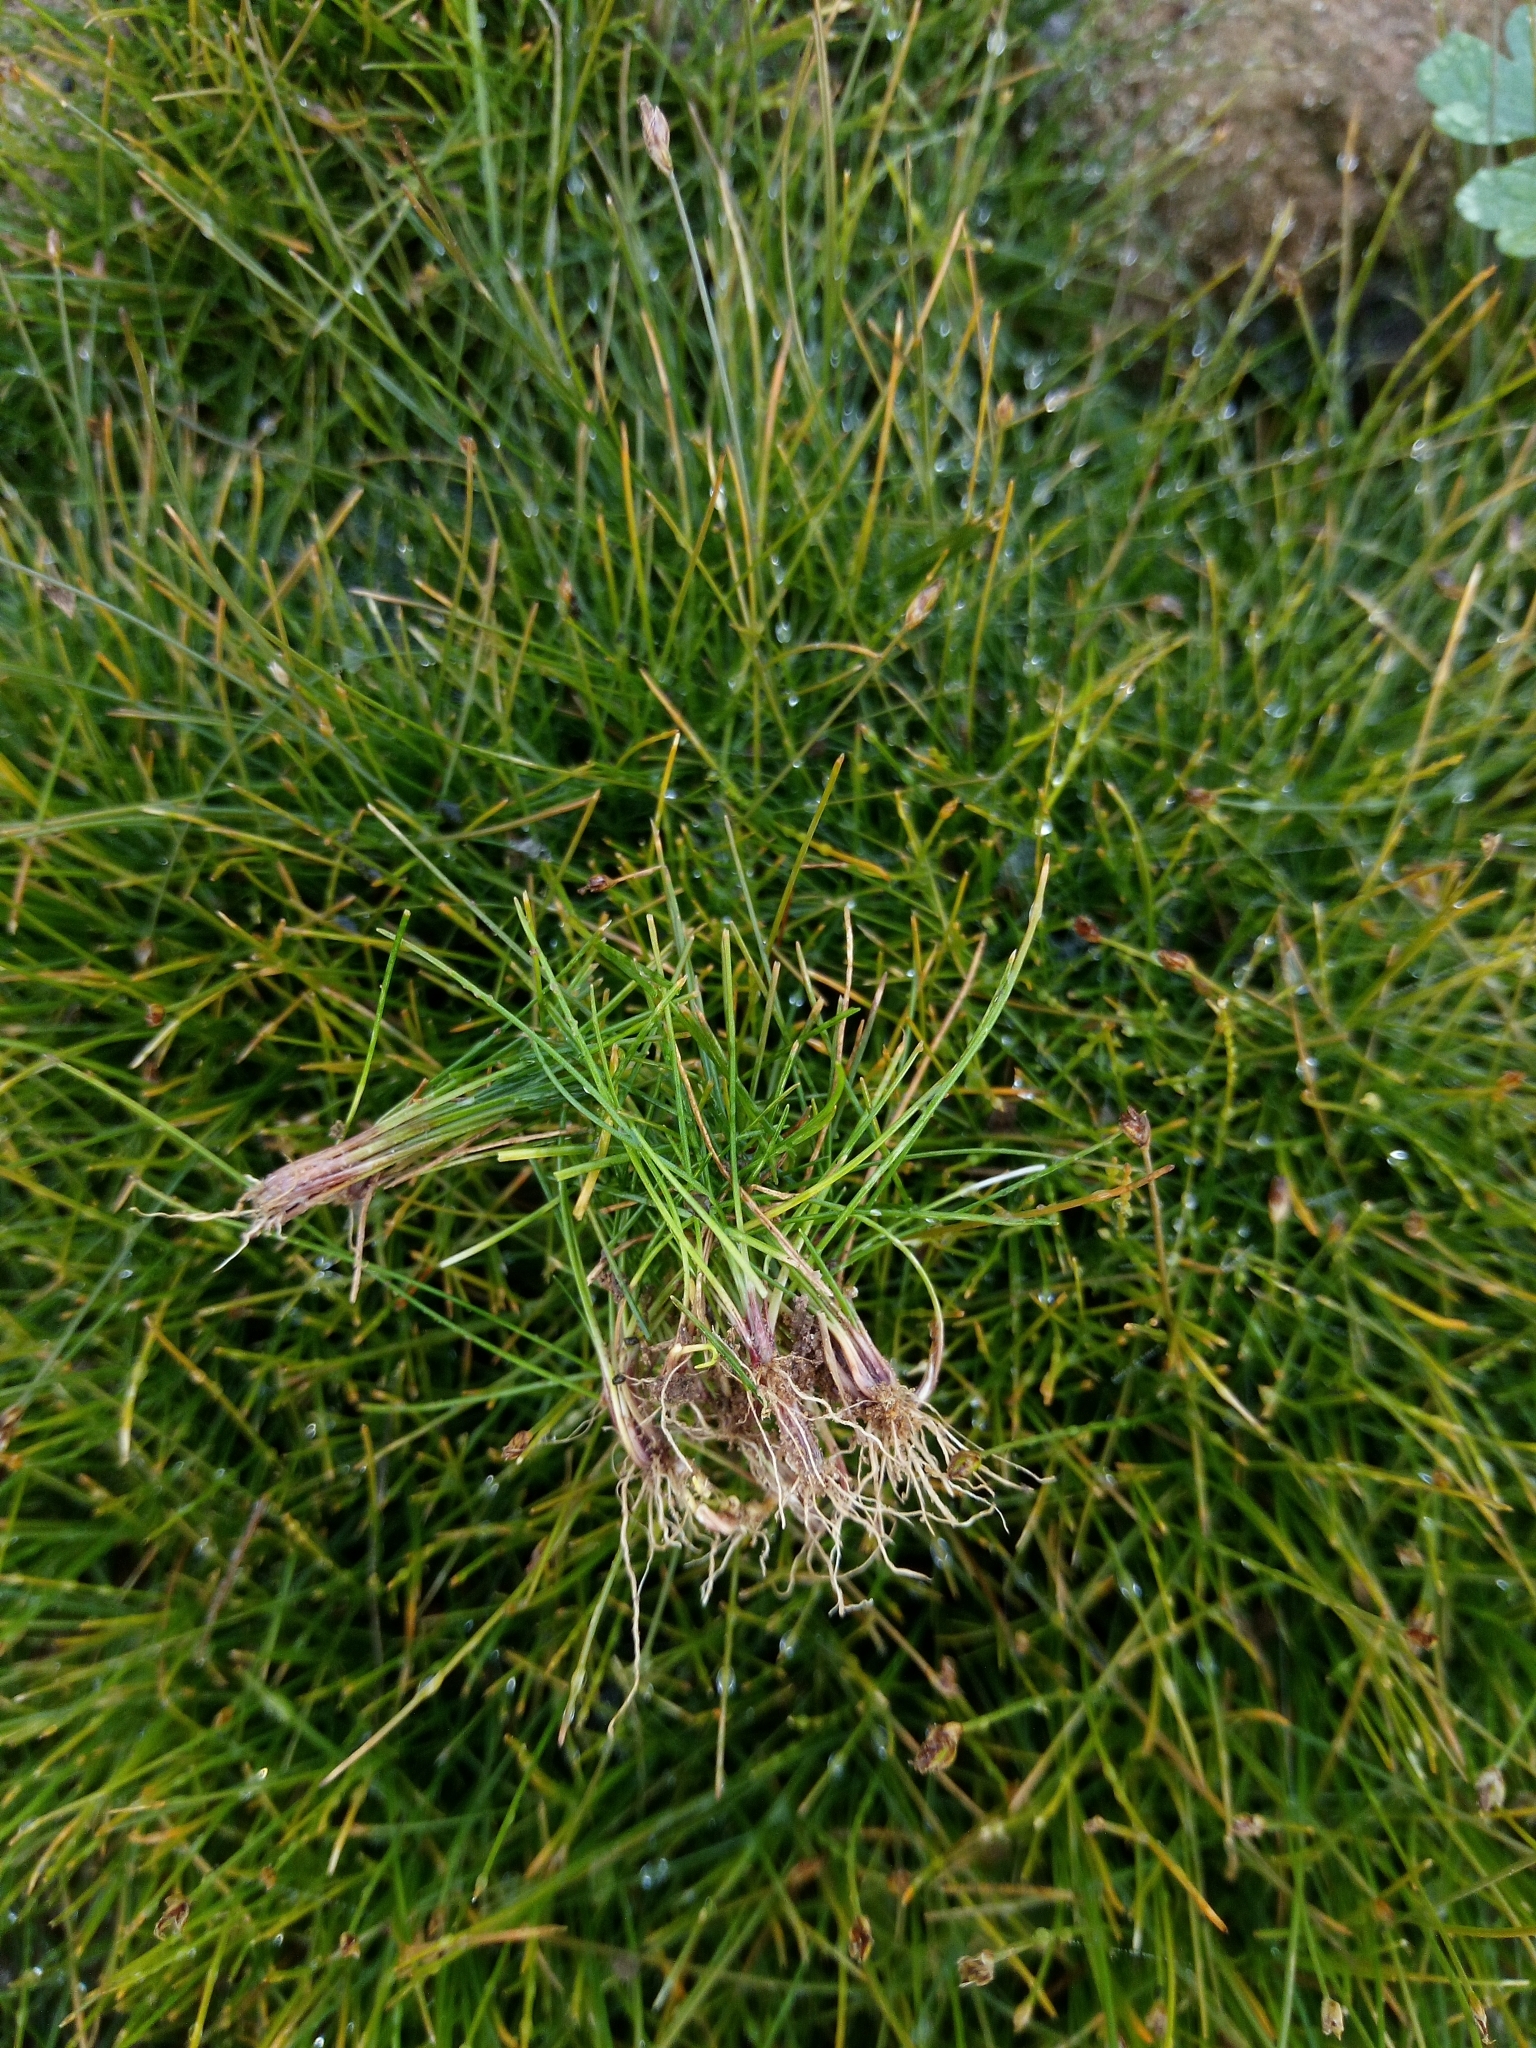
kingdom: Plantae
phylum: Tracheophyta
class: Liliopsida
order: Poales
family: Cyperaceae
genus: Eleocharis
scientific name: Eleocharis acicularis
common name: Needle spike-rush
